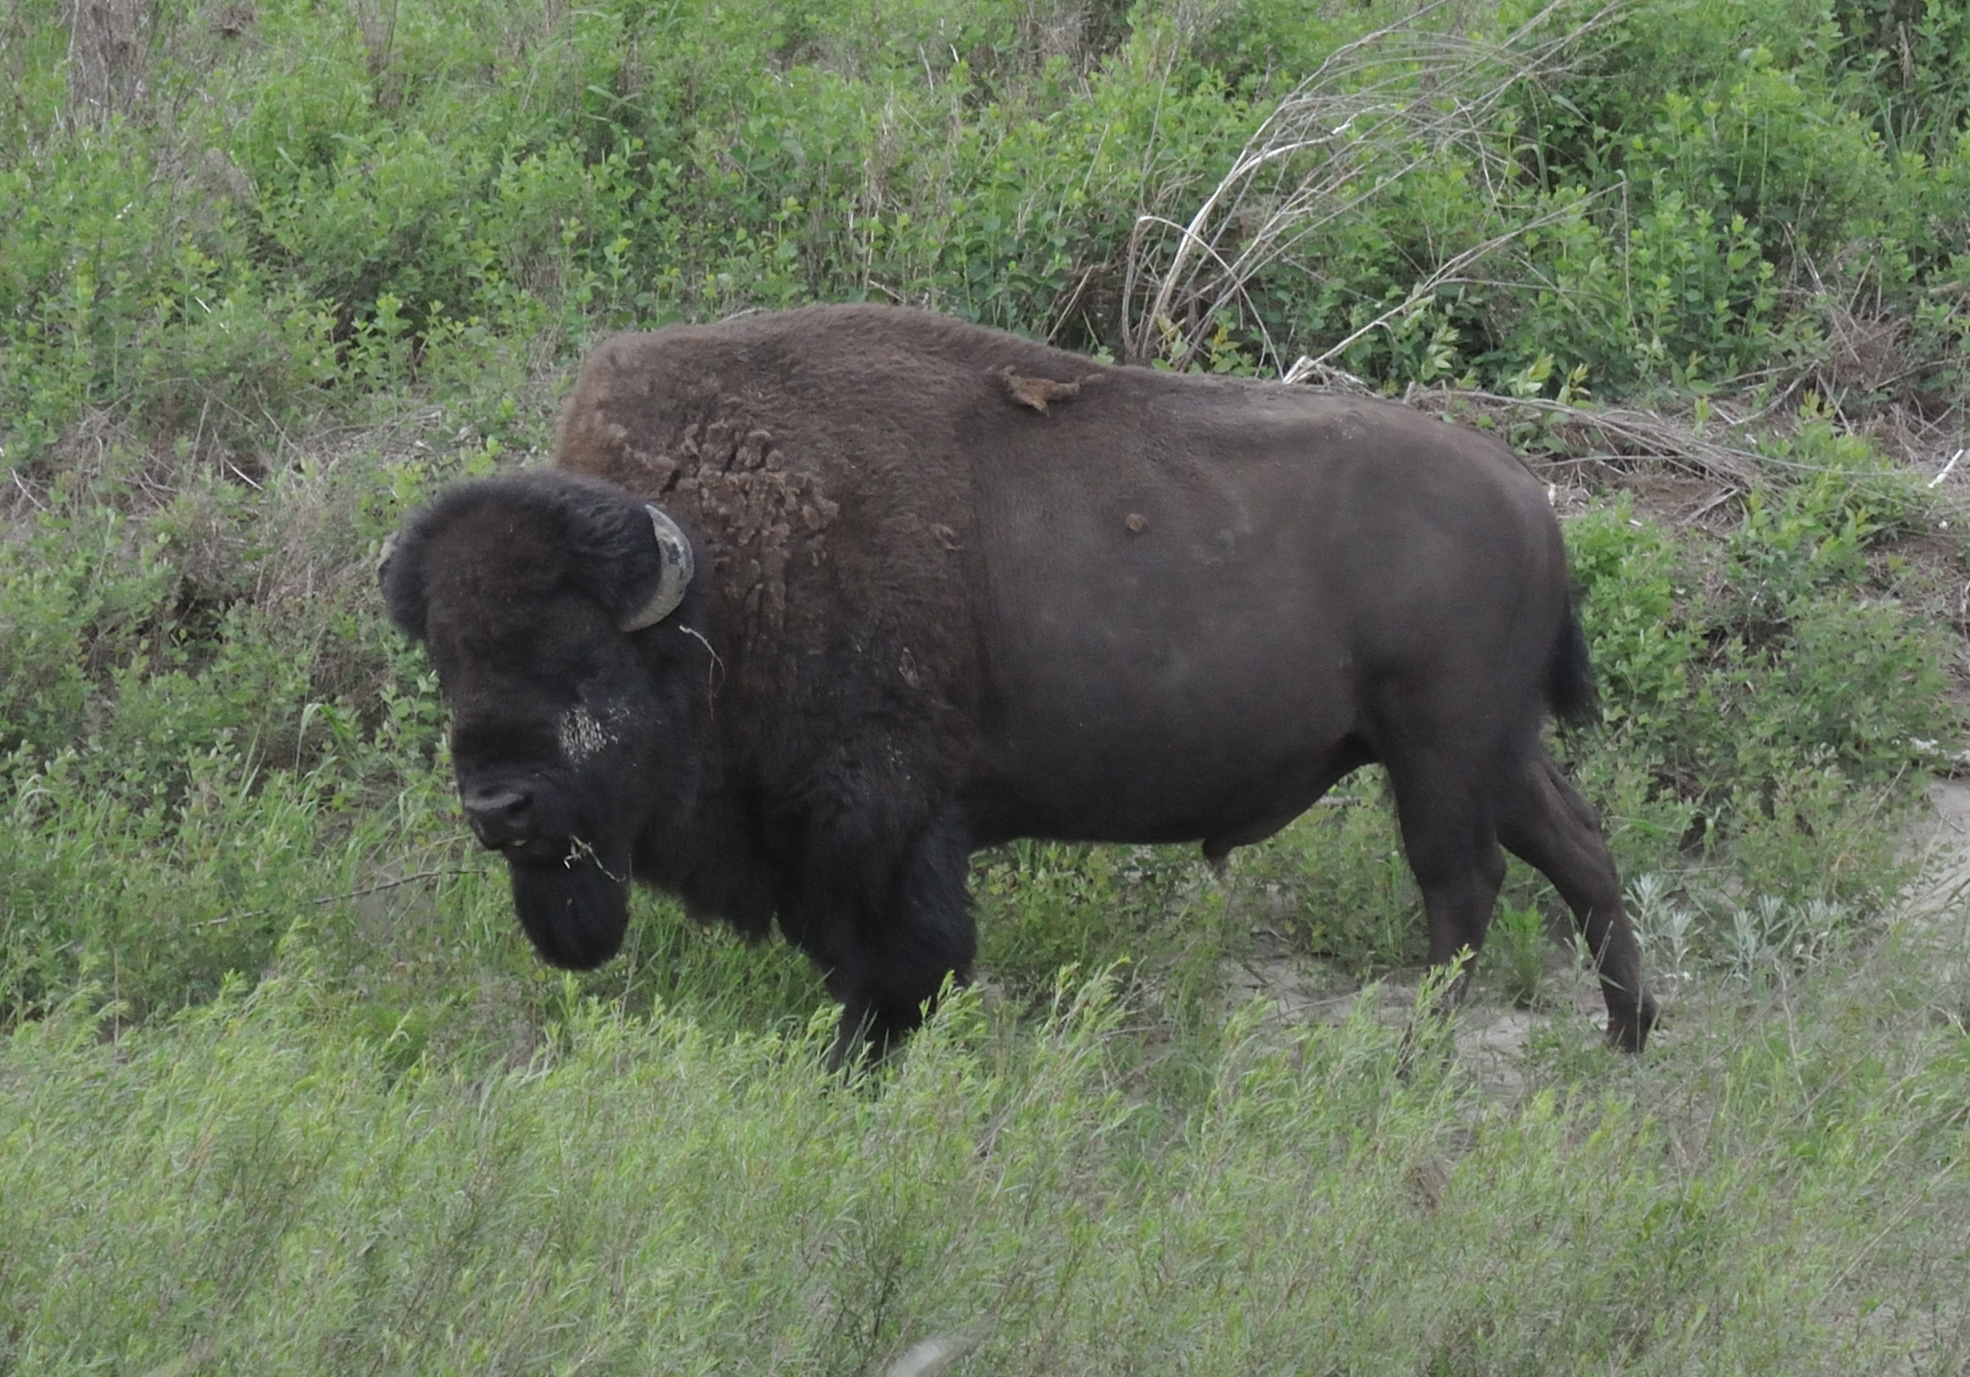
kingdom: Animalia
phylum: Chordata
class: Mammalia
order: Artiodactyla
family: Bovidae
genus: Bison
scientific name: Bison bison
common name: American bison
